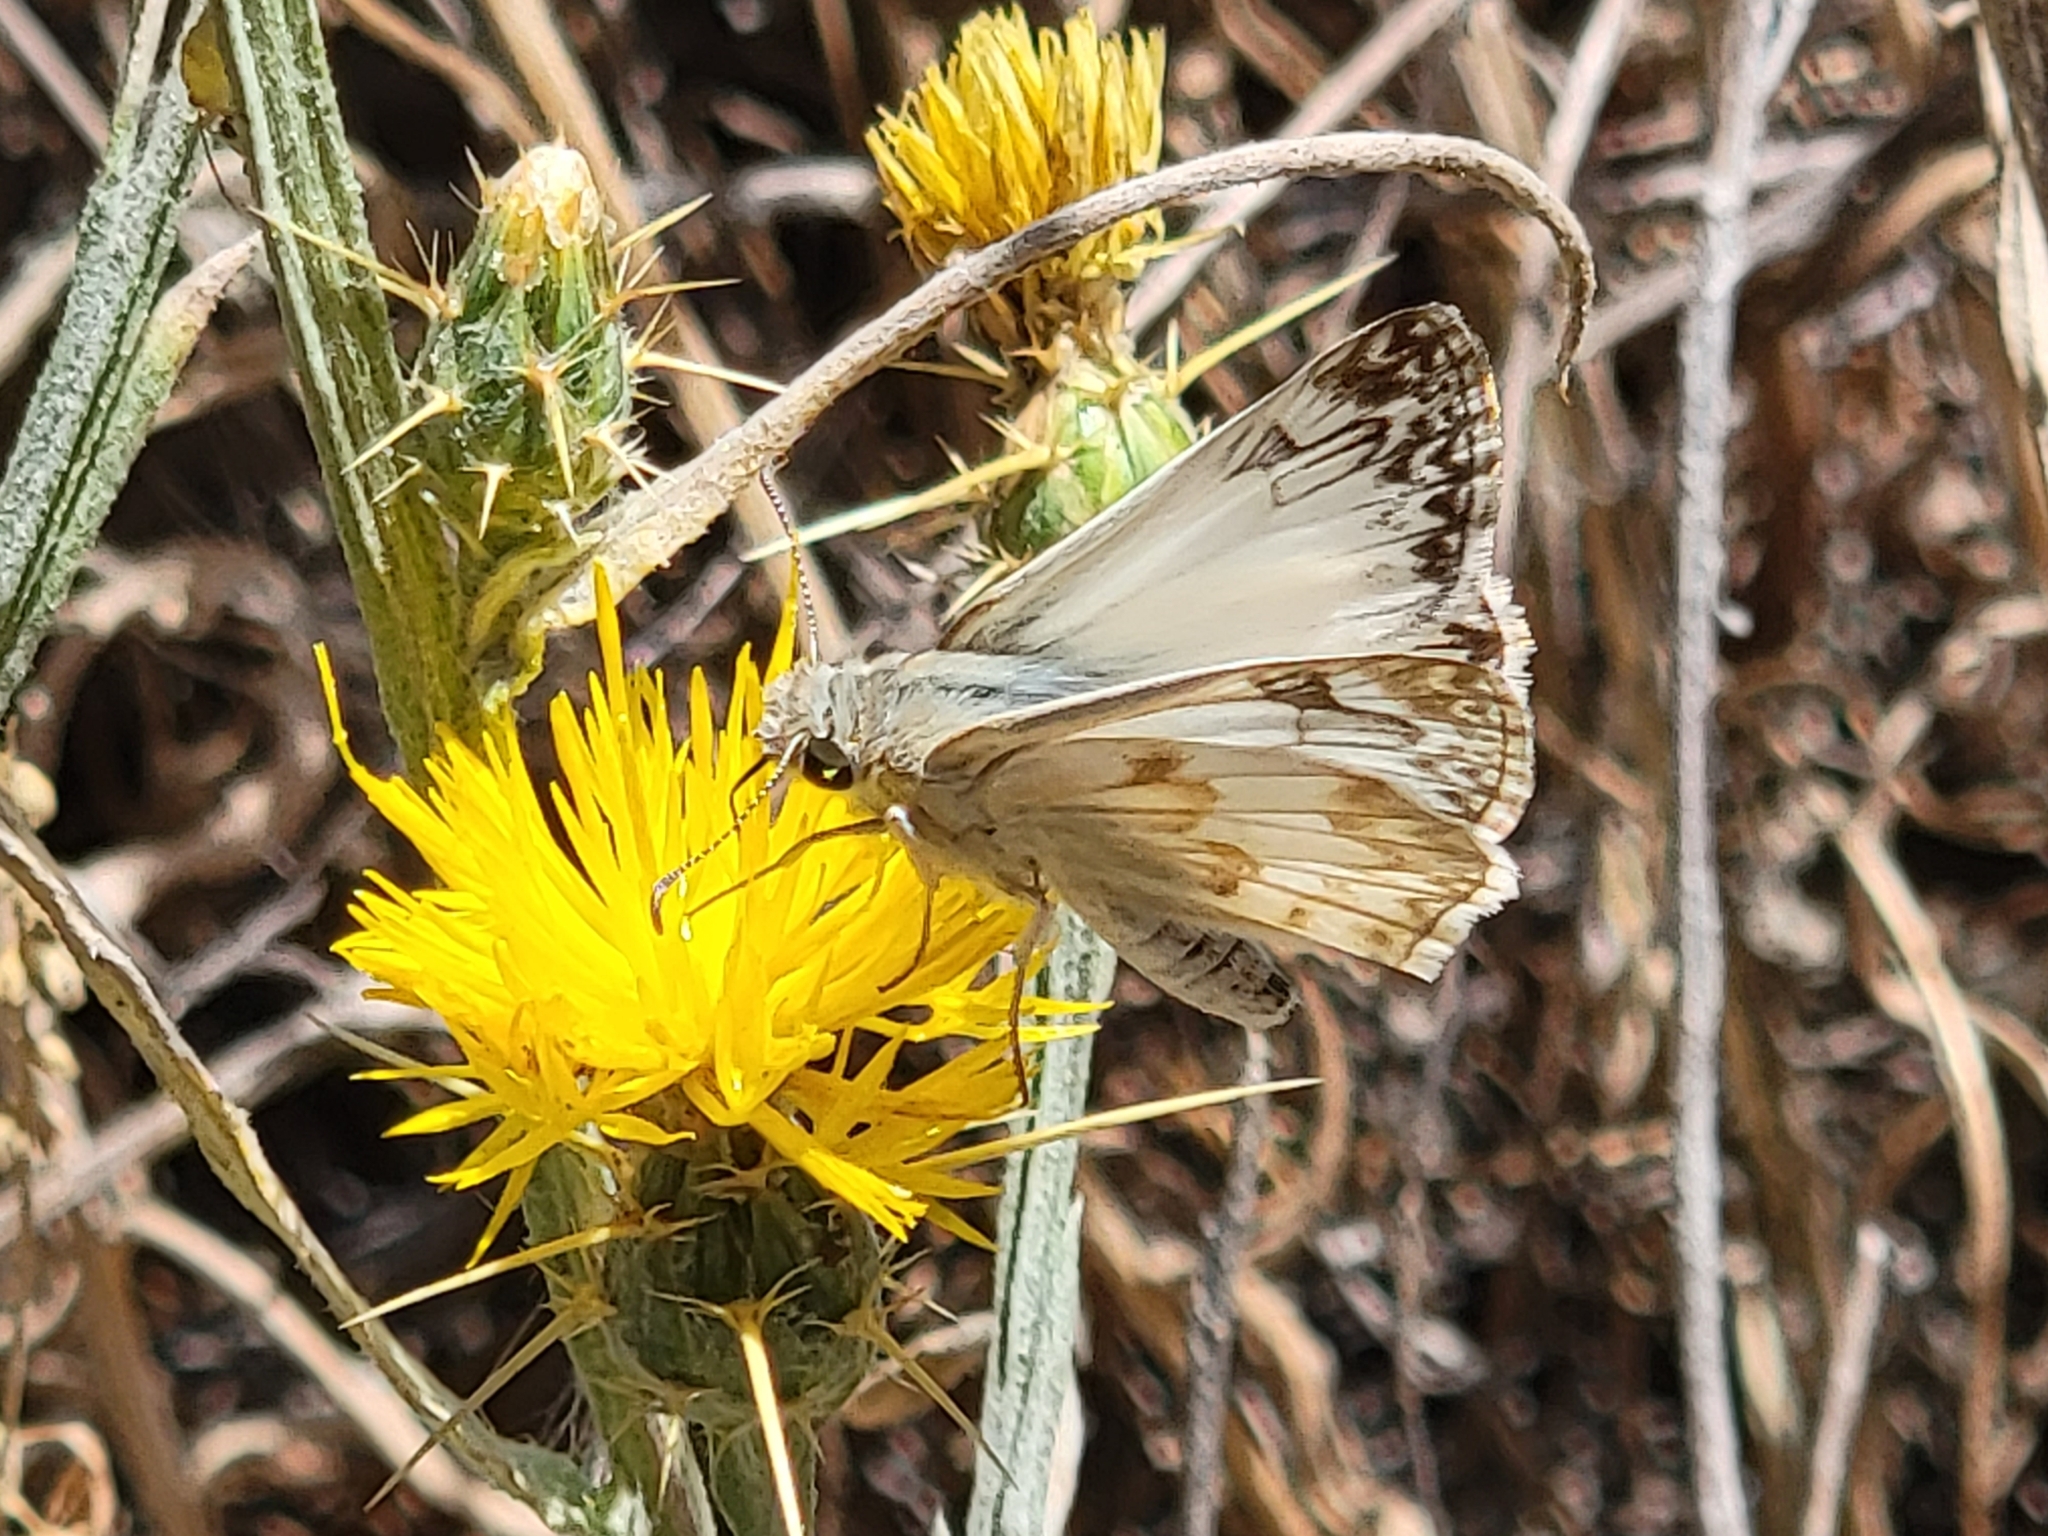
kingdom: Animalia
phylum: Arthropoda
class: Insecta
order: Lepidoptera
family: Hesperiidae
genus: Heliopetes
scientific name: Heliopetes ericetorum
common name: Northern white-skipper
